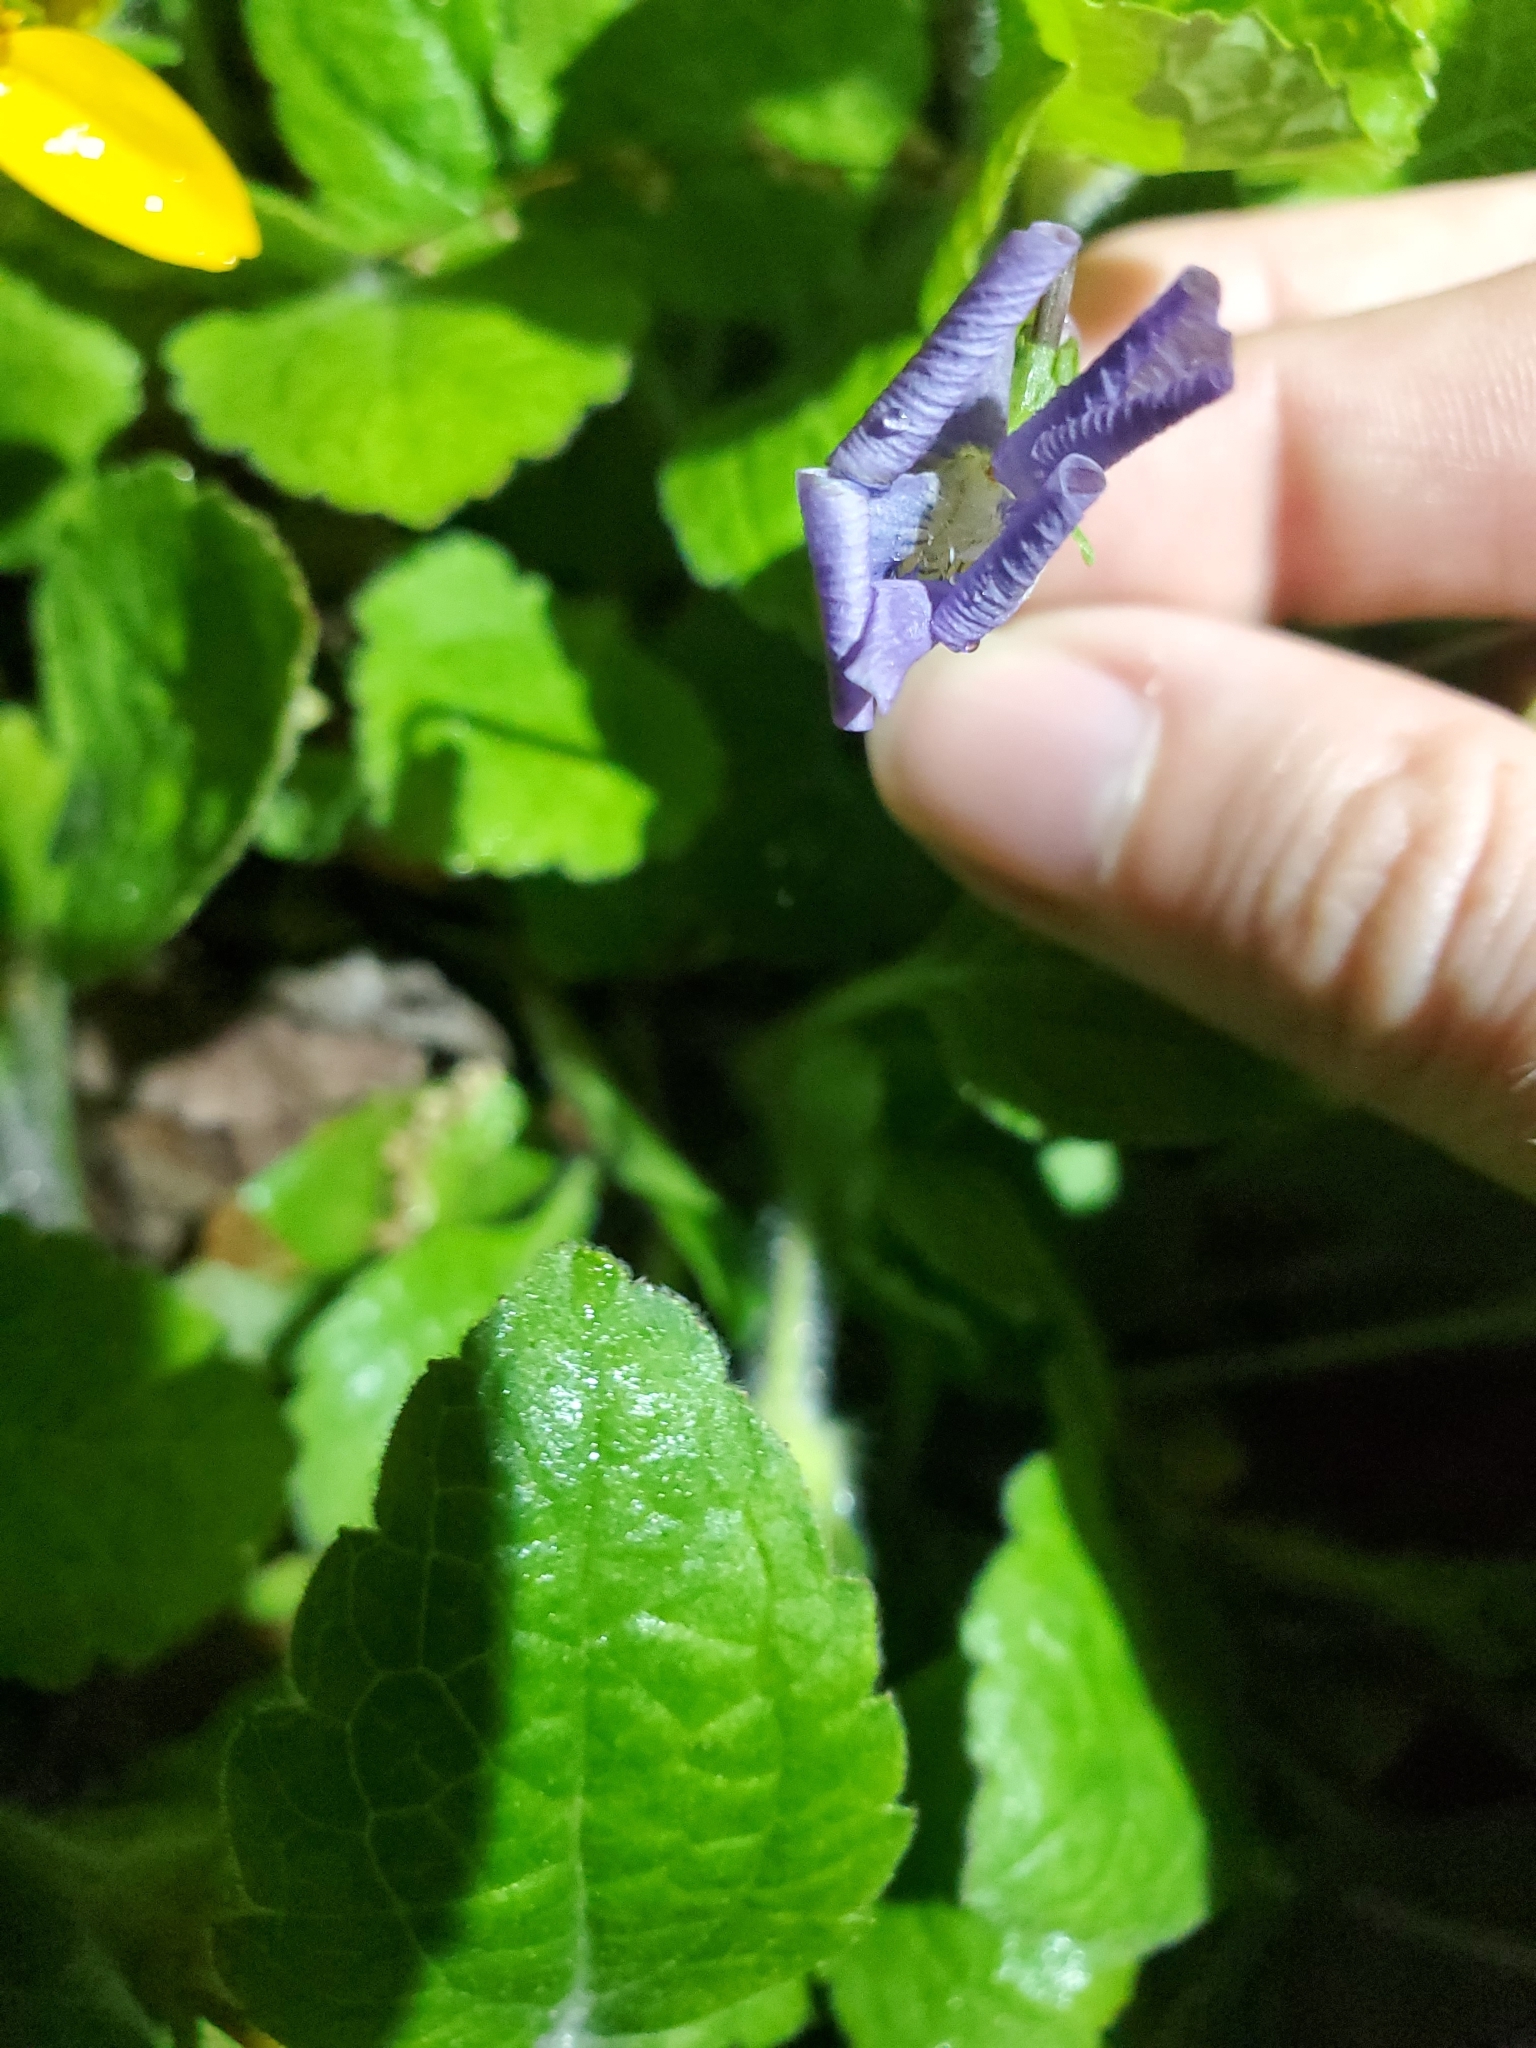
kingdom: Plantae
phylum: Tracheophyta
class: Magnoliopsida
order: Malpighiales
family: Violaceae
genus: Viola
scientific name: Viola sororia
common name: Dooryard violet
